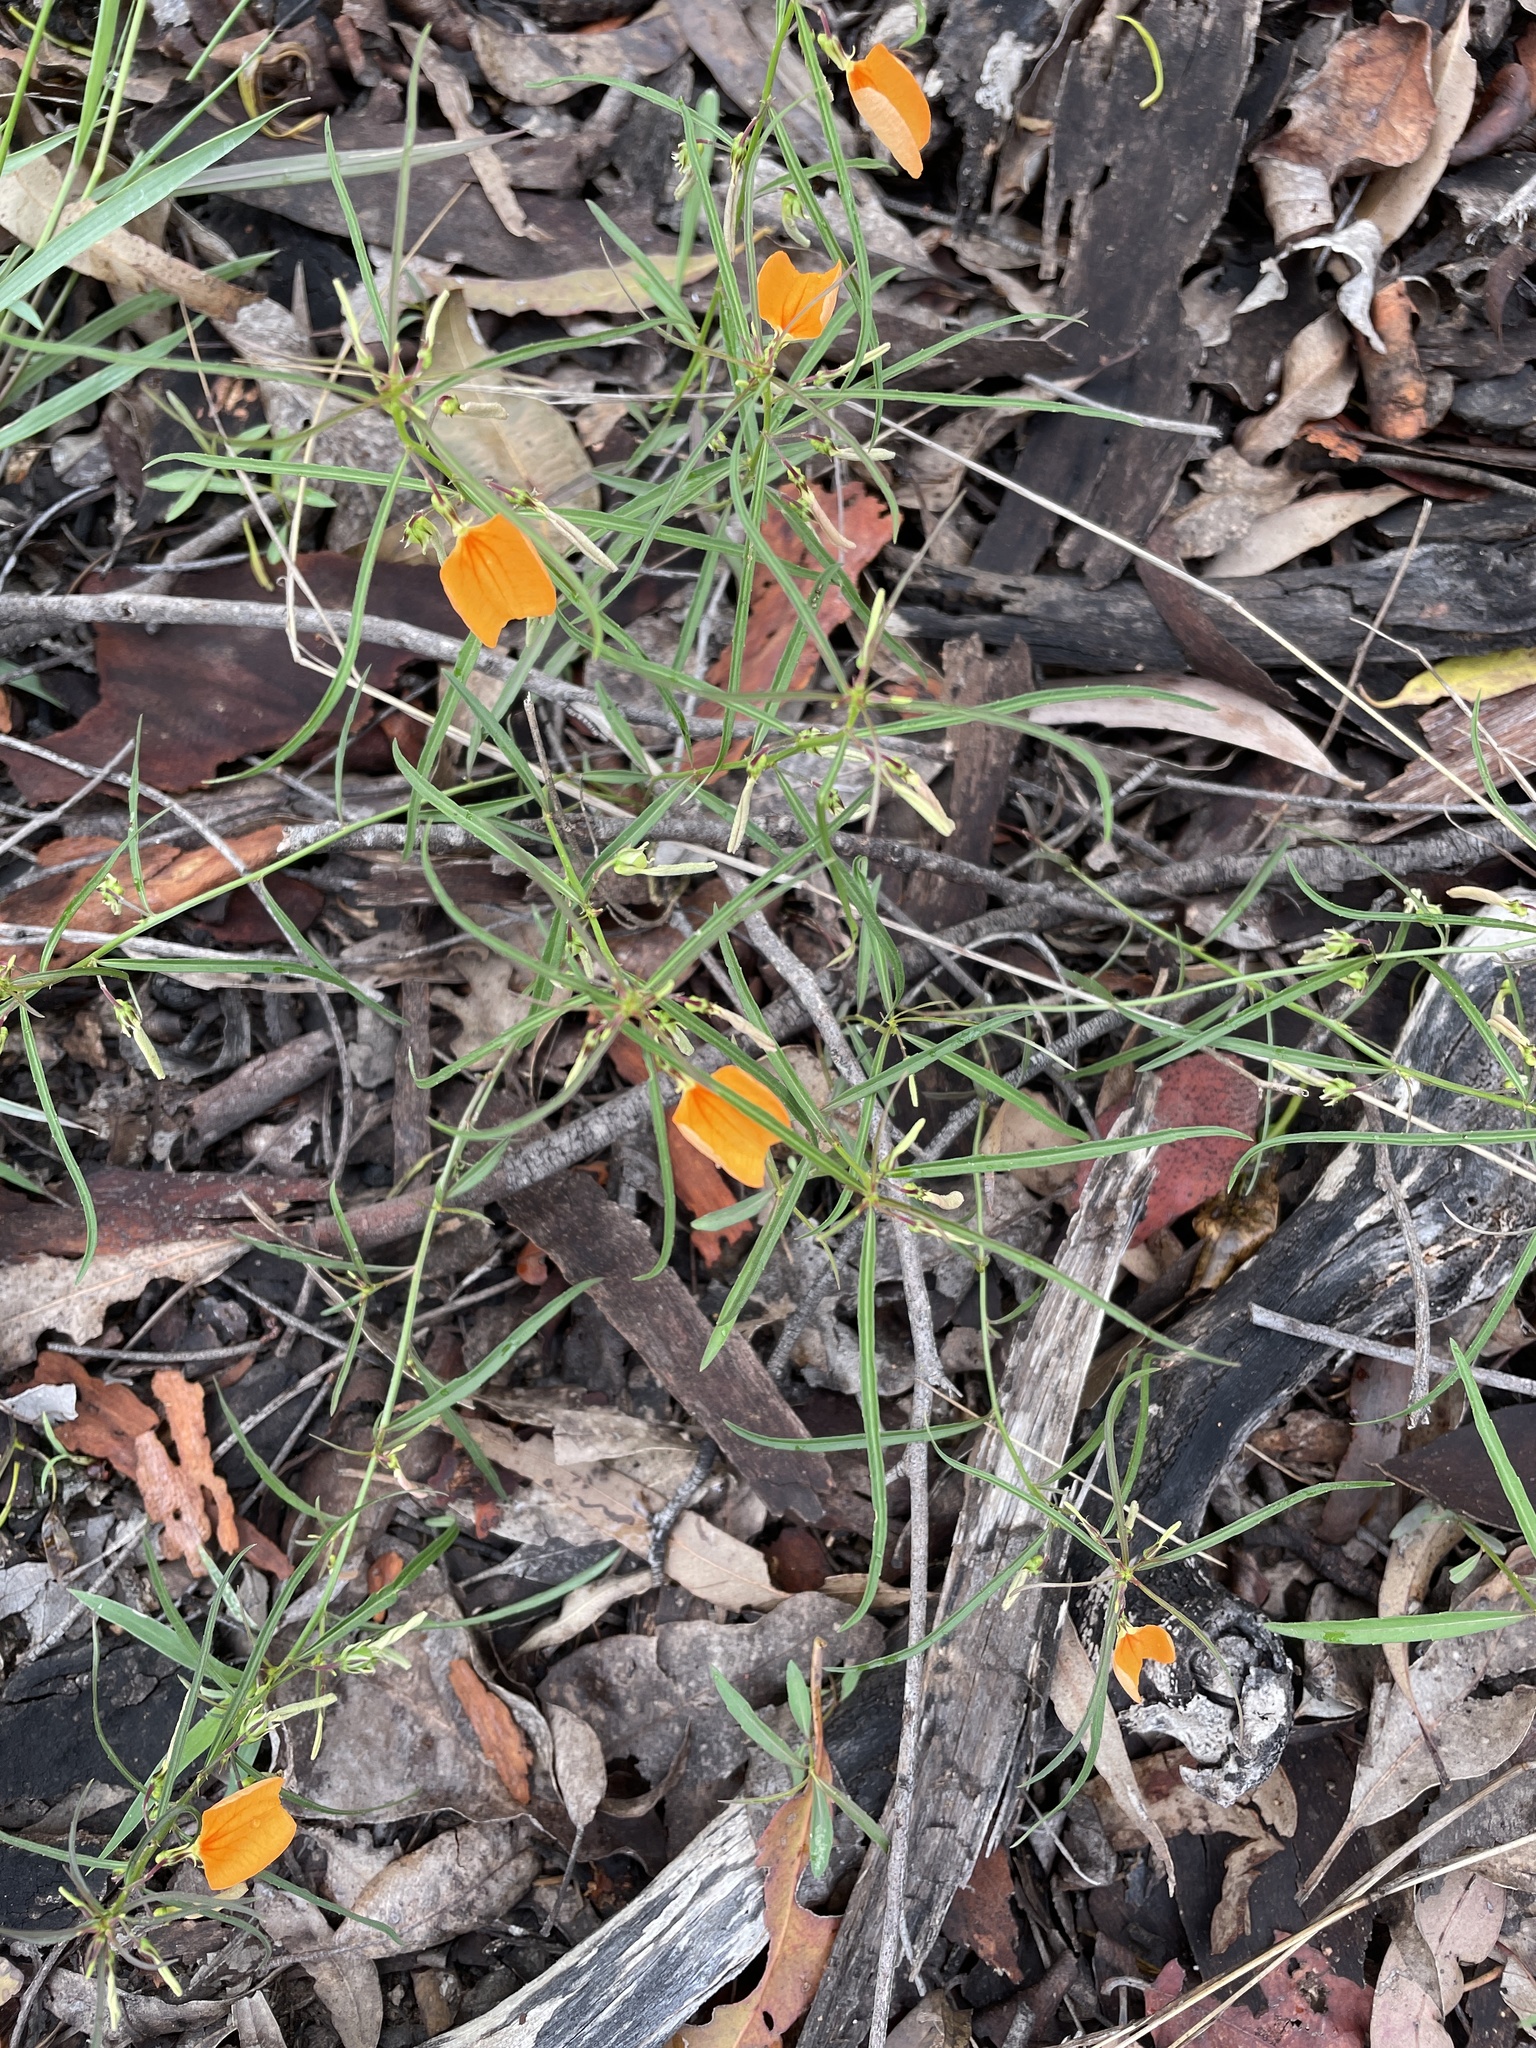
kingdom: Plantae
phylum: Tracheophyta
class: Magnoliopsida
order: Malpighiales
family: Violaceae
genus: Pigea
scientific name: Pigea stellarioides
